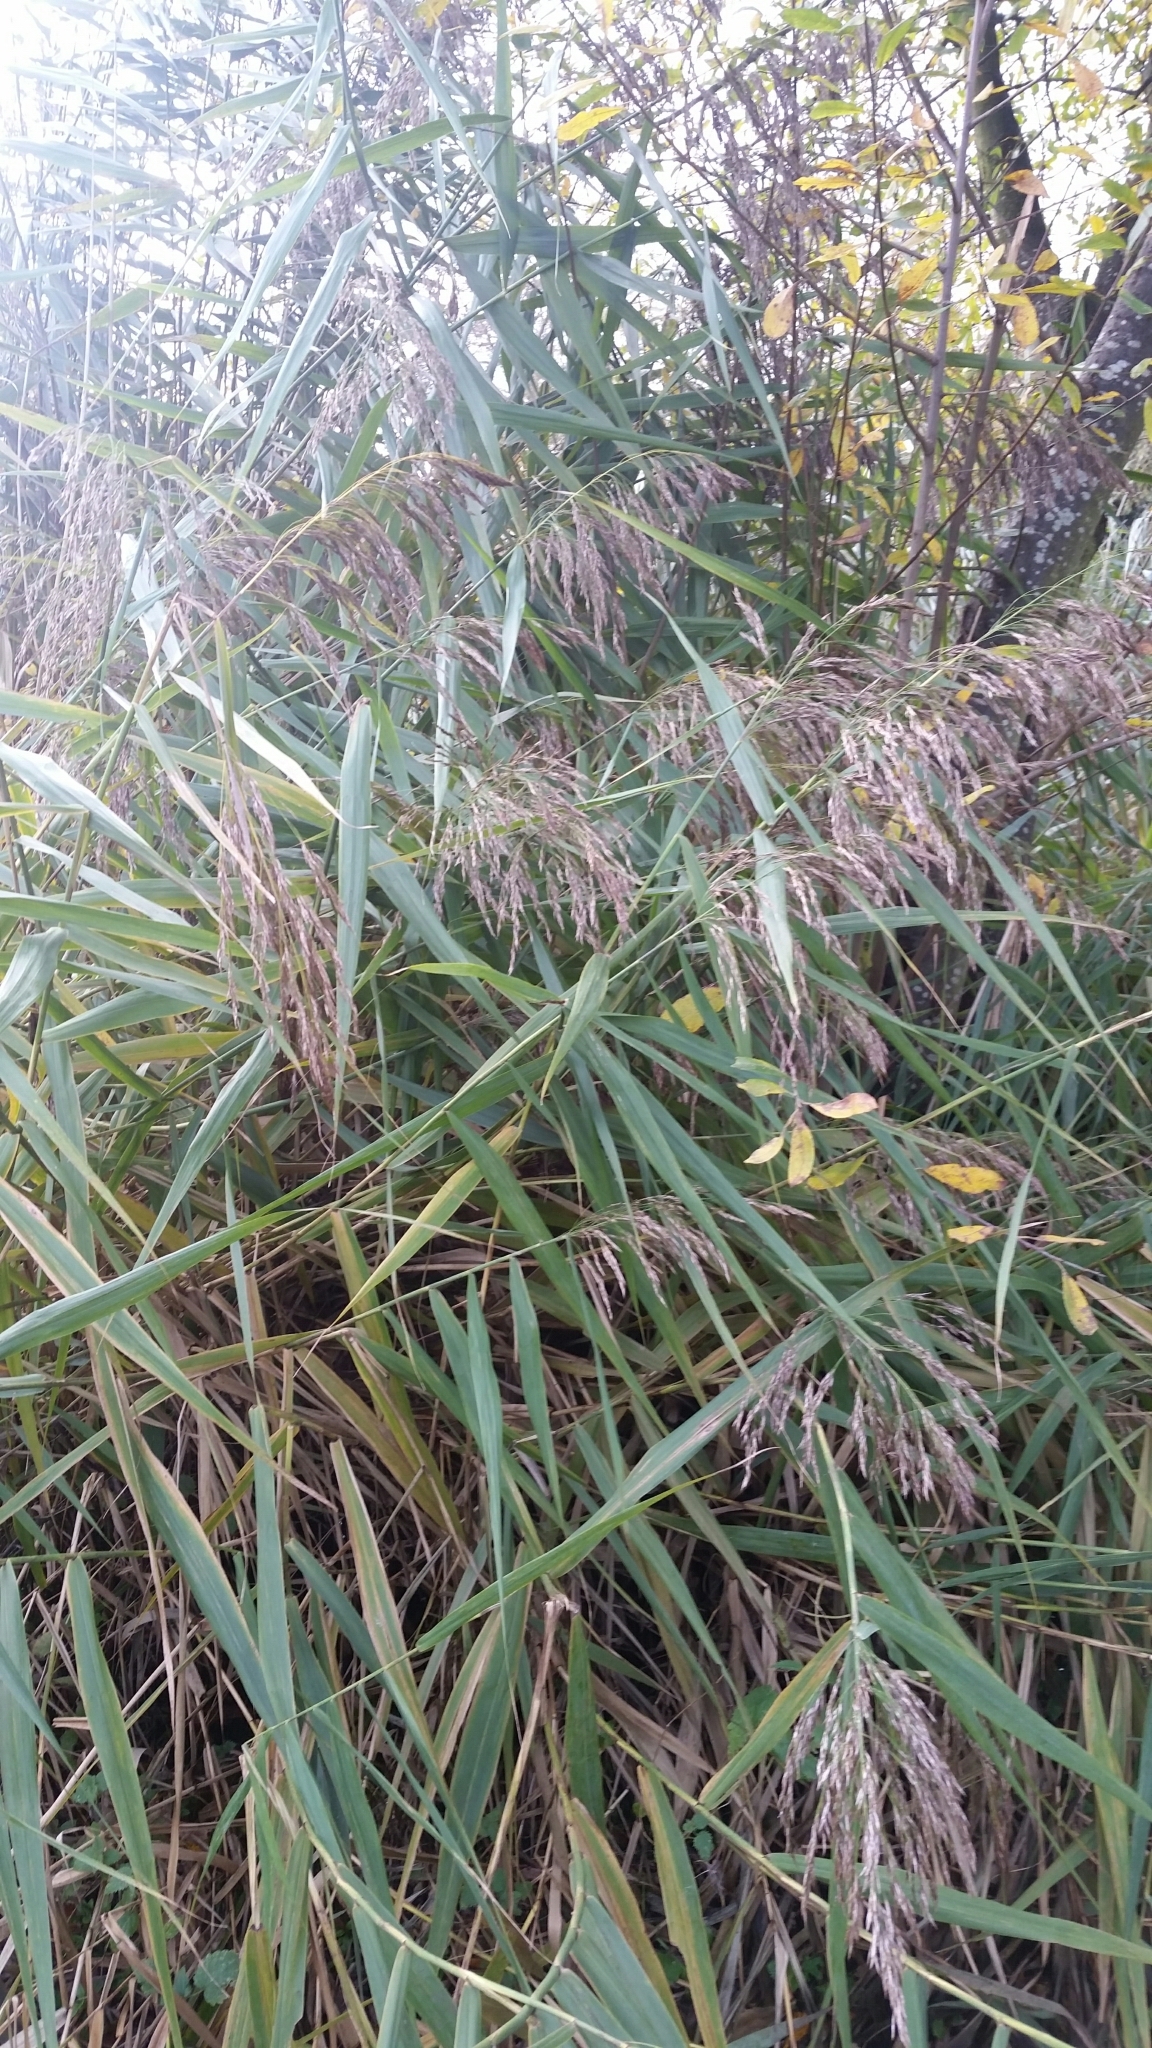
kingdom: Plantae
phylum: Tracheophyta
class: Liliopsida
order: Poales
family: Poaceae
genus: Phragmites
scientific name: Phragmites australis
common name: Common reed
